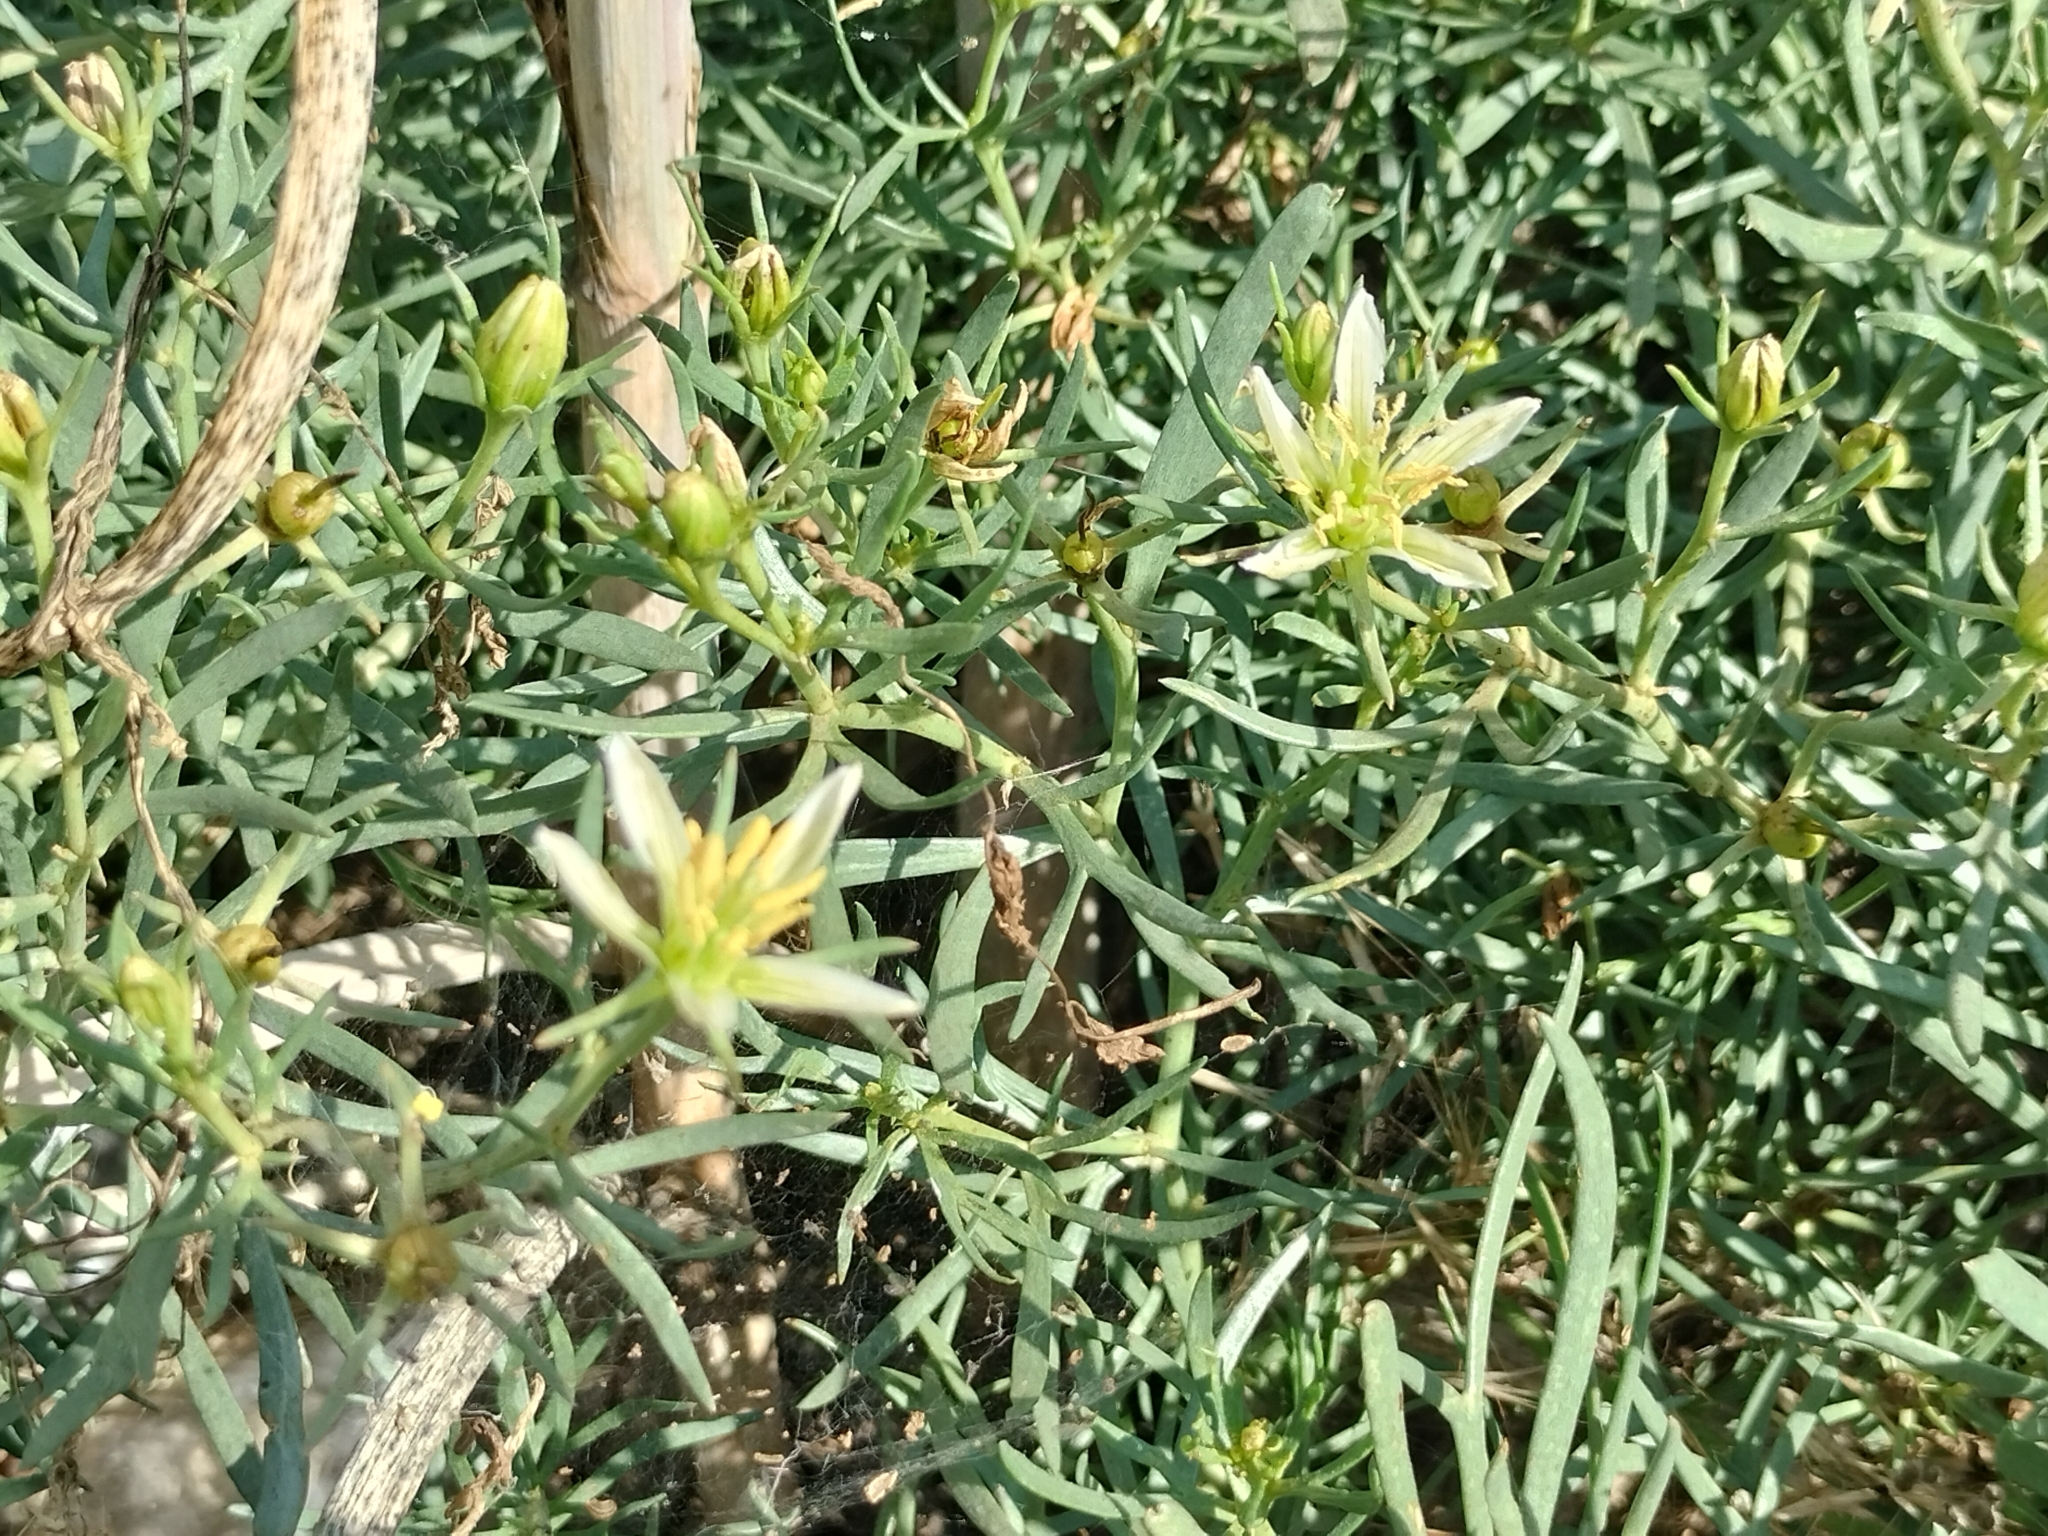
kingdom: Plantae
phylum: Tracheophyta
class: Magnoliopsida
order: Sapindales
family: Tetradiclidaceae
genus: Peganum
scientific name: Peganum harmala
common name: Harmal peganum
